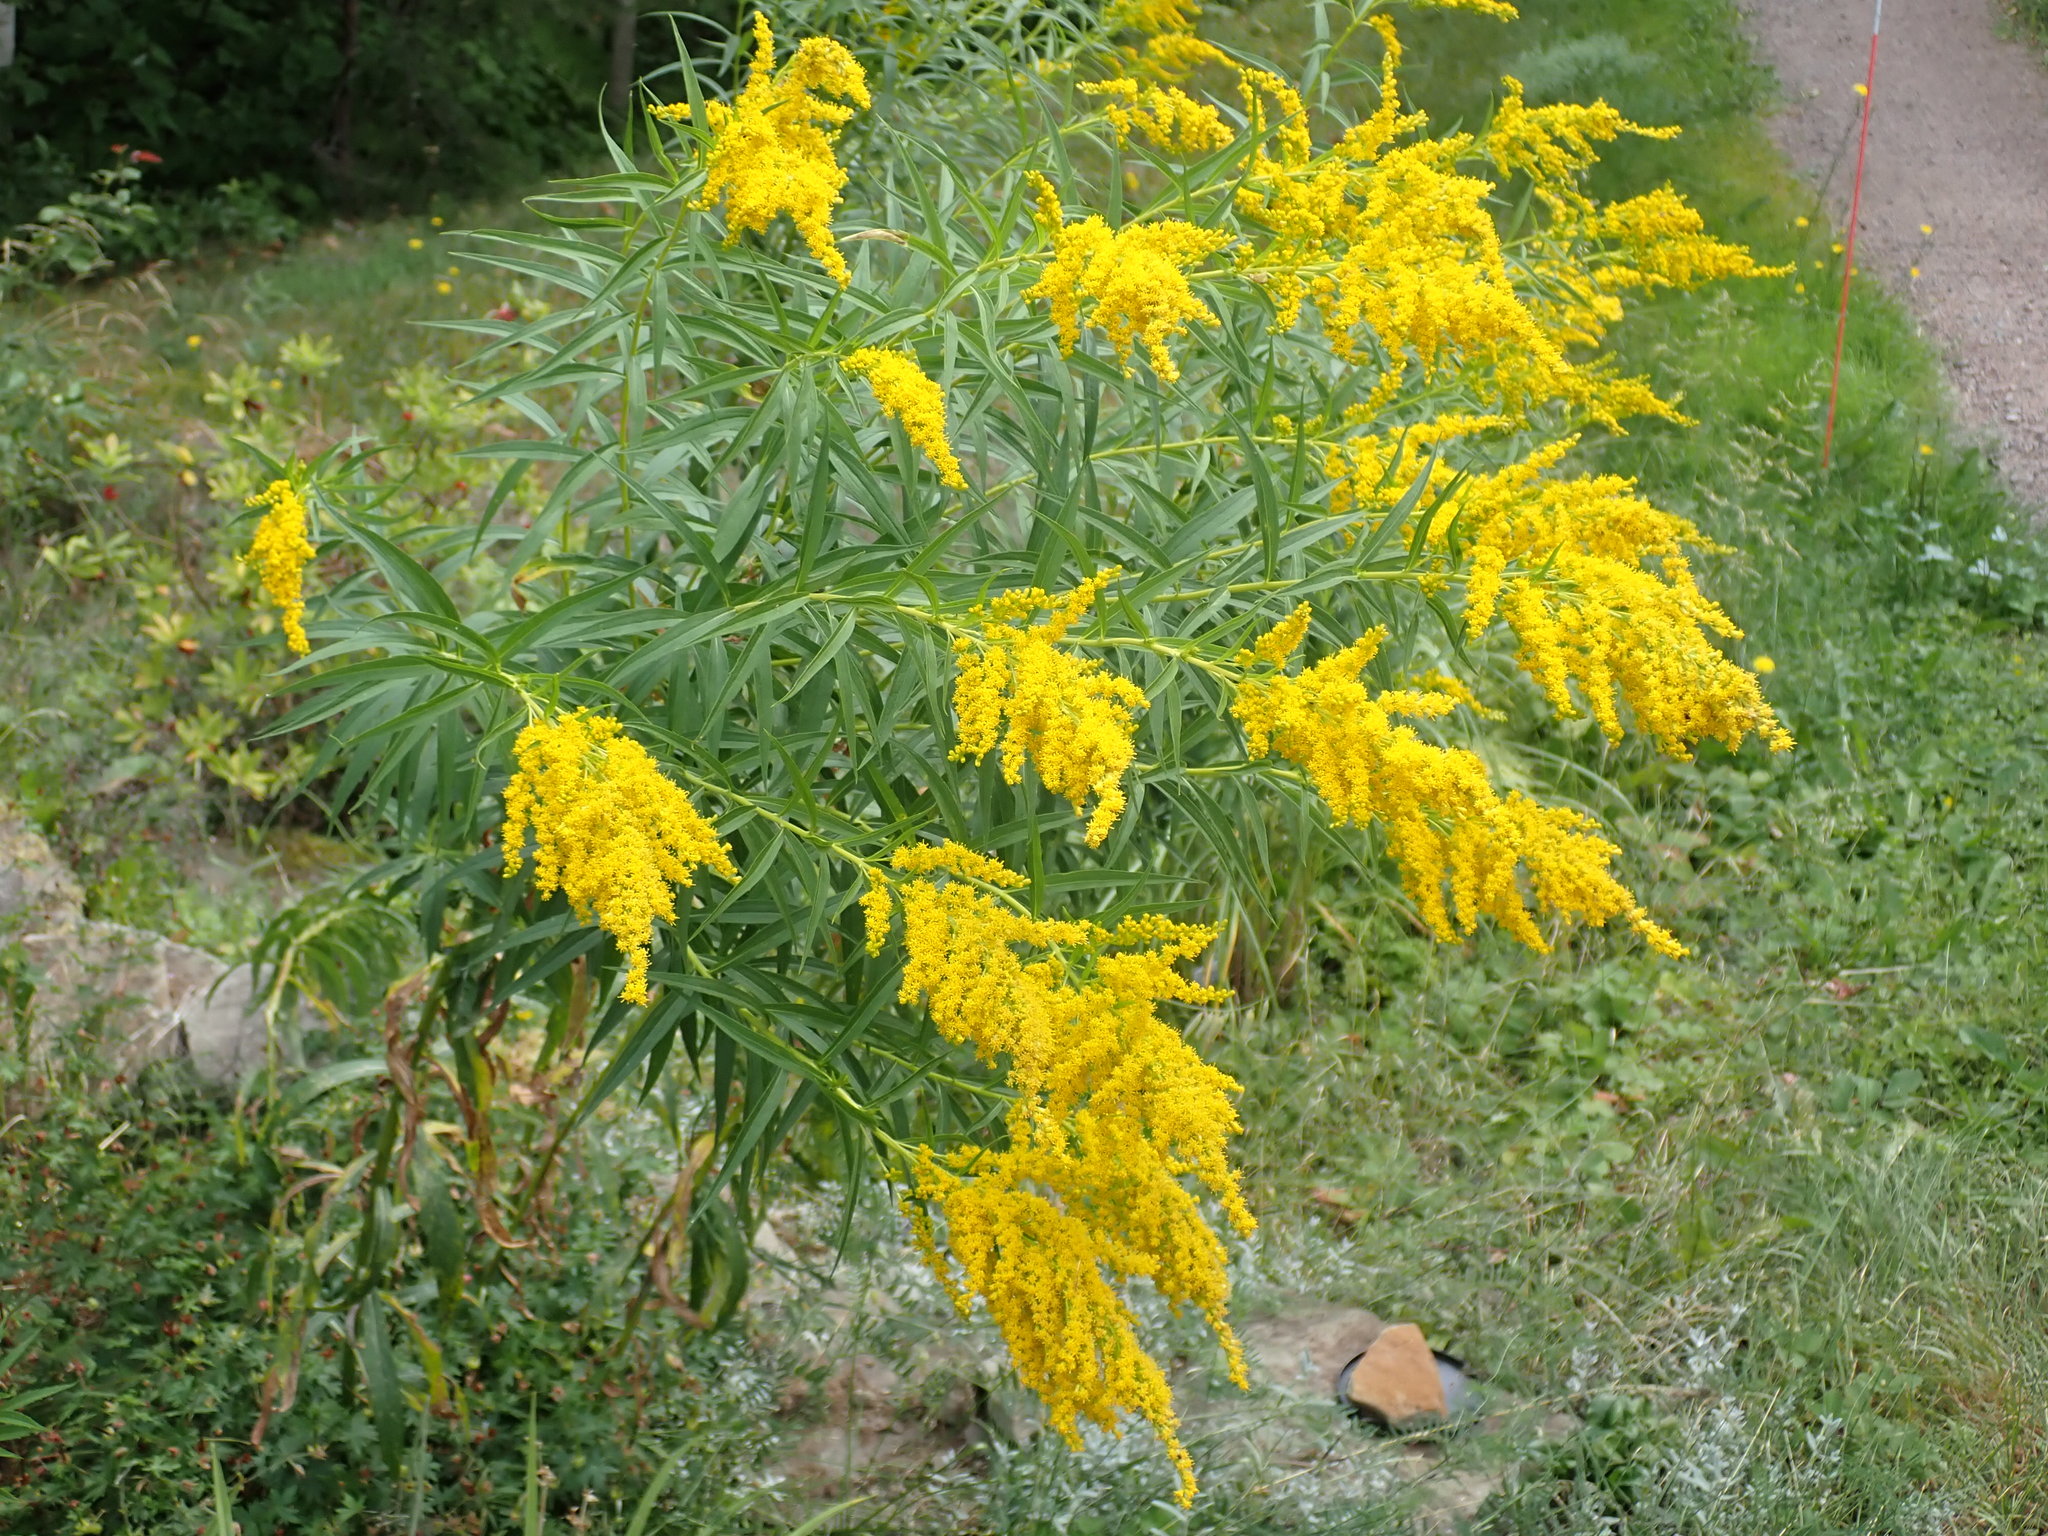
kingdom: Plantae
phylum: Tracheophyta
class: Magnoliopsida
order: Asterales
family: Asteraceae
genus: Solidago
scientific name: Solidago canadensis
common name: Canada goldenrod
